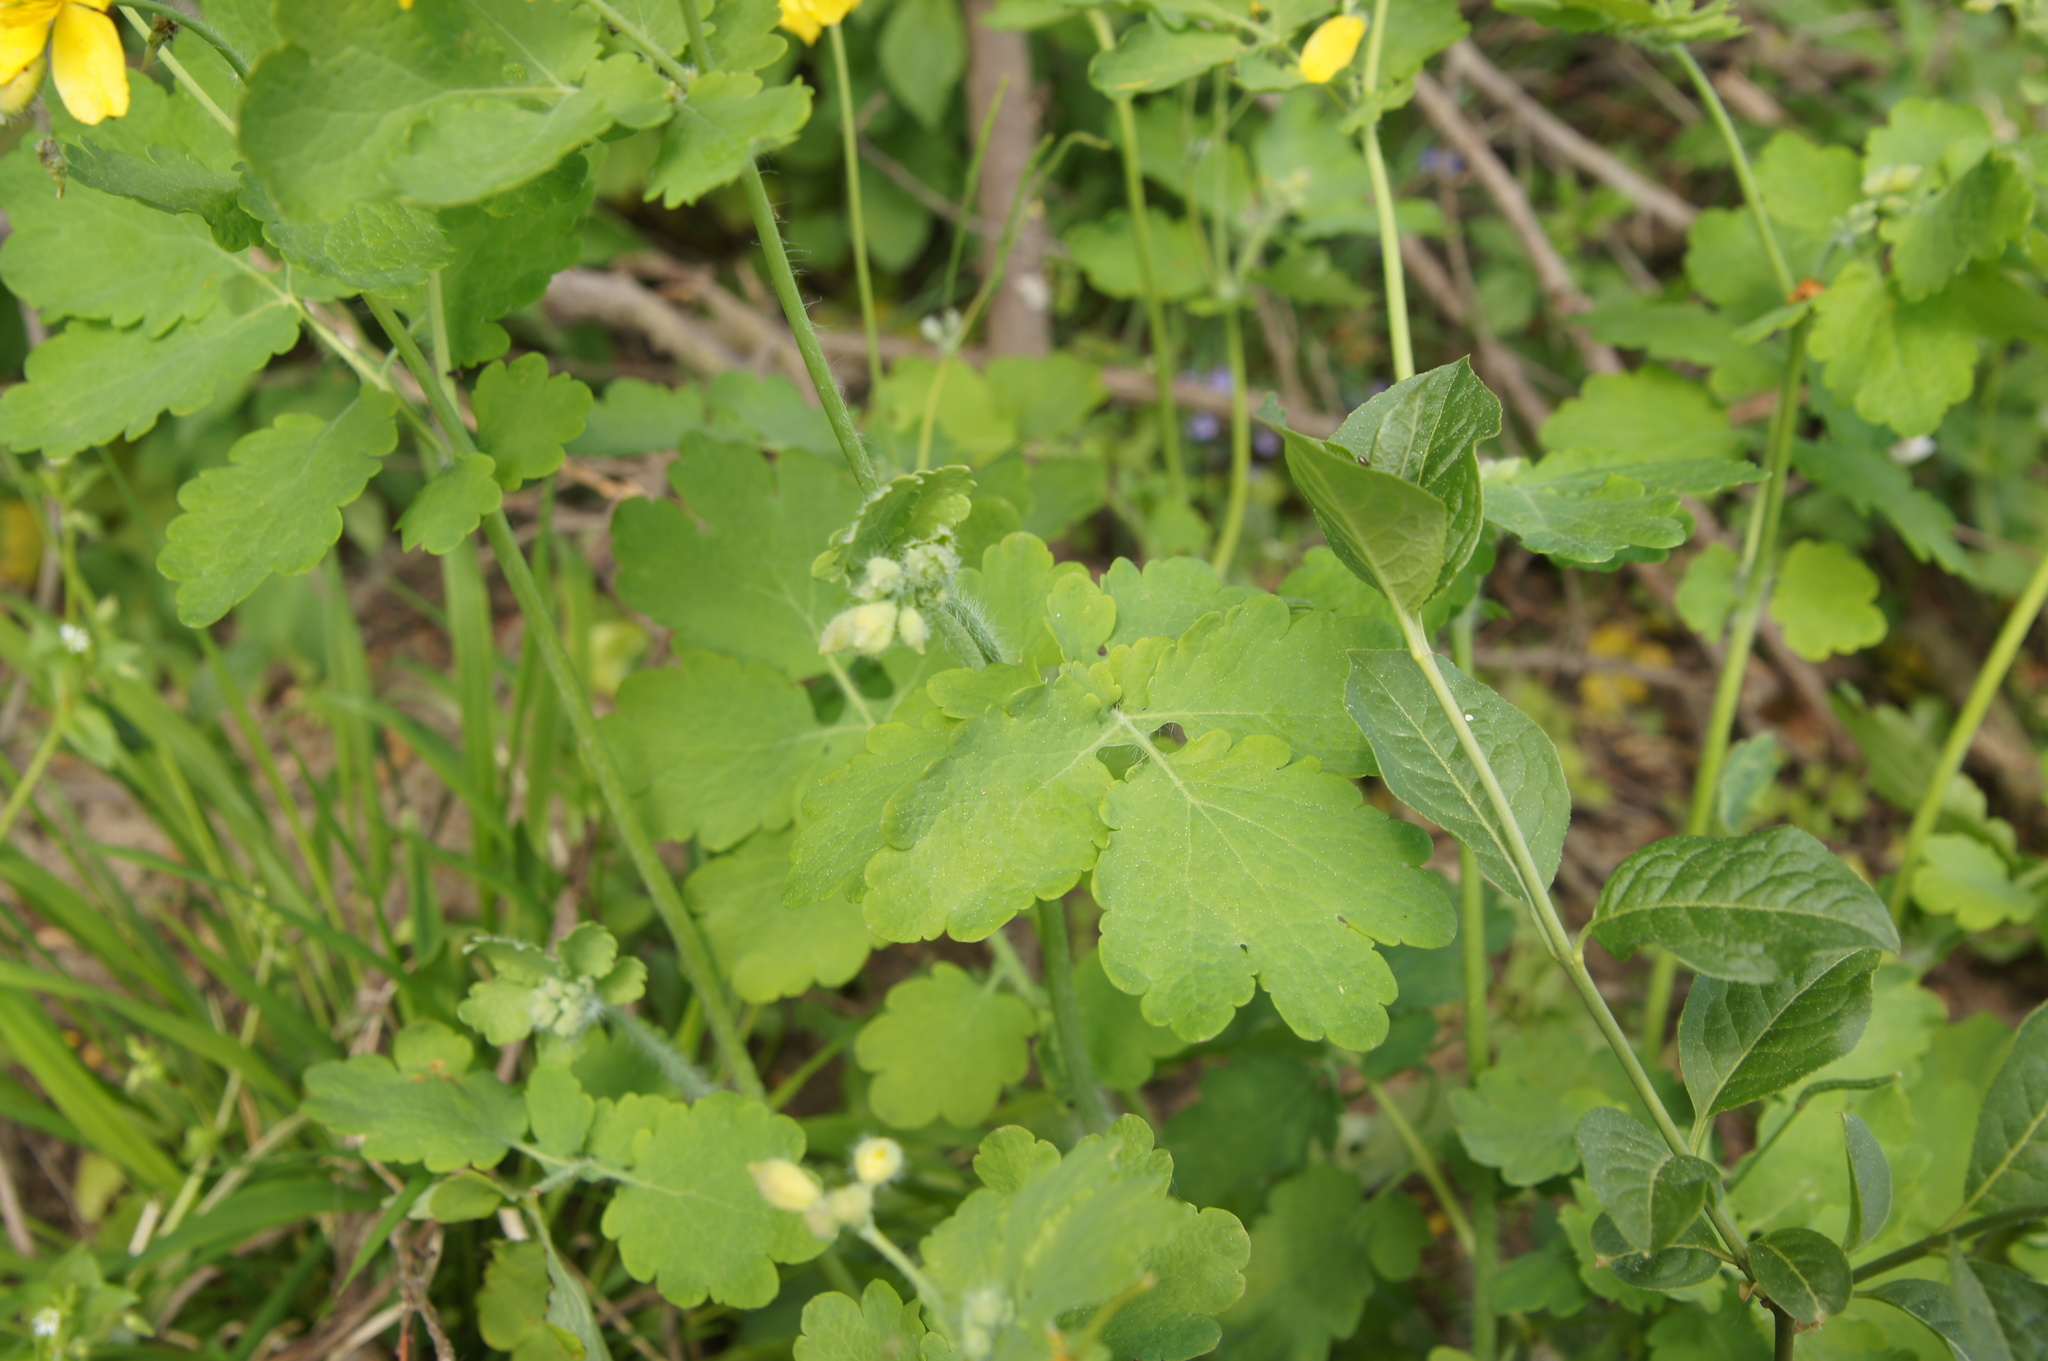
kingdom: Plantae
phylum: Tracheophyta
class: Magnoliopsida
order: Ranunculales
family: Papaveraceae
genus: Chelidonium
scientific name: Chelidonium majus
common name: Greater celandine
